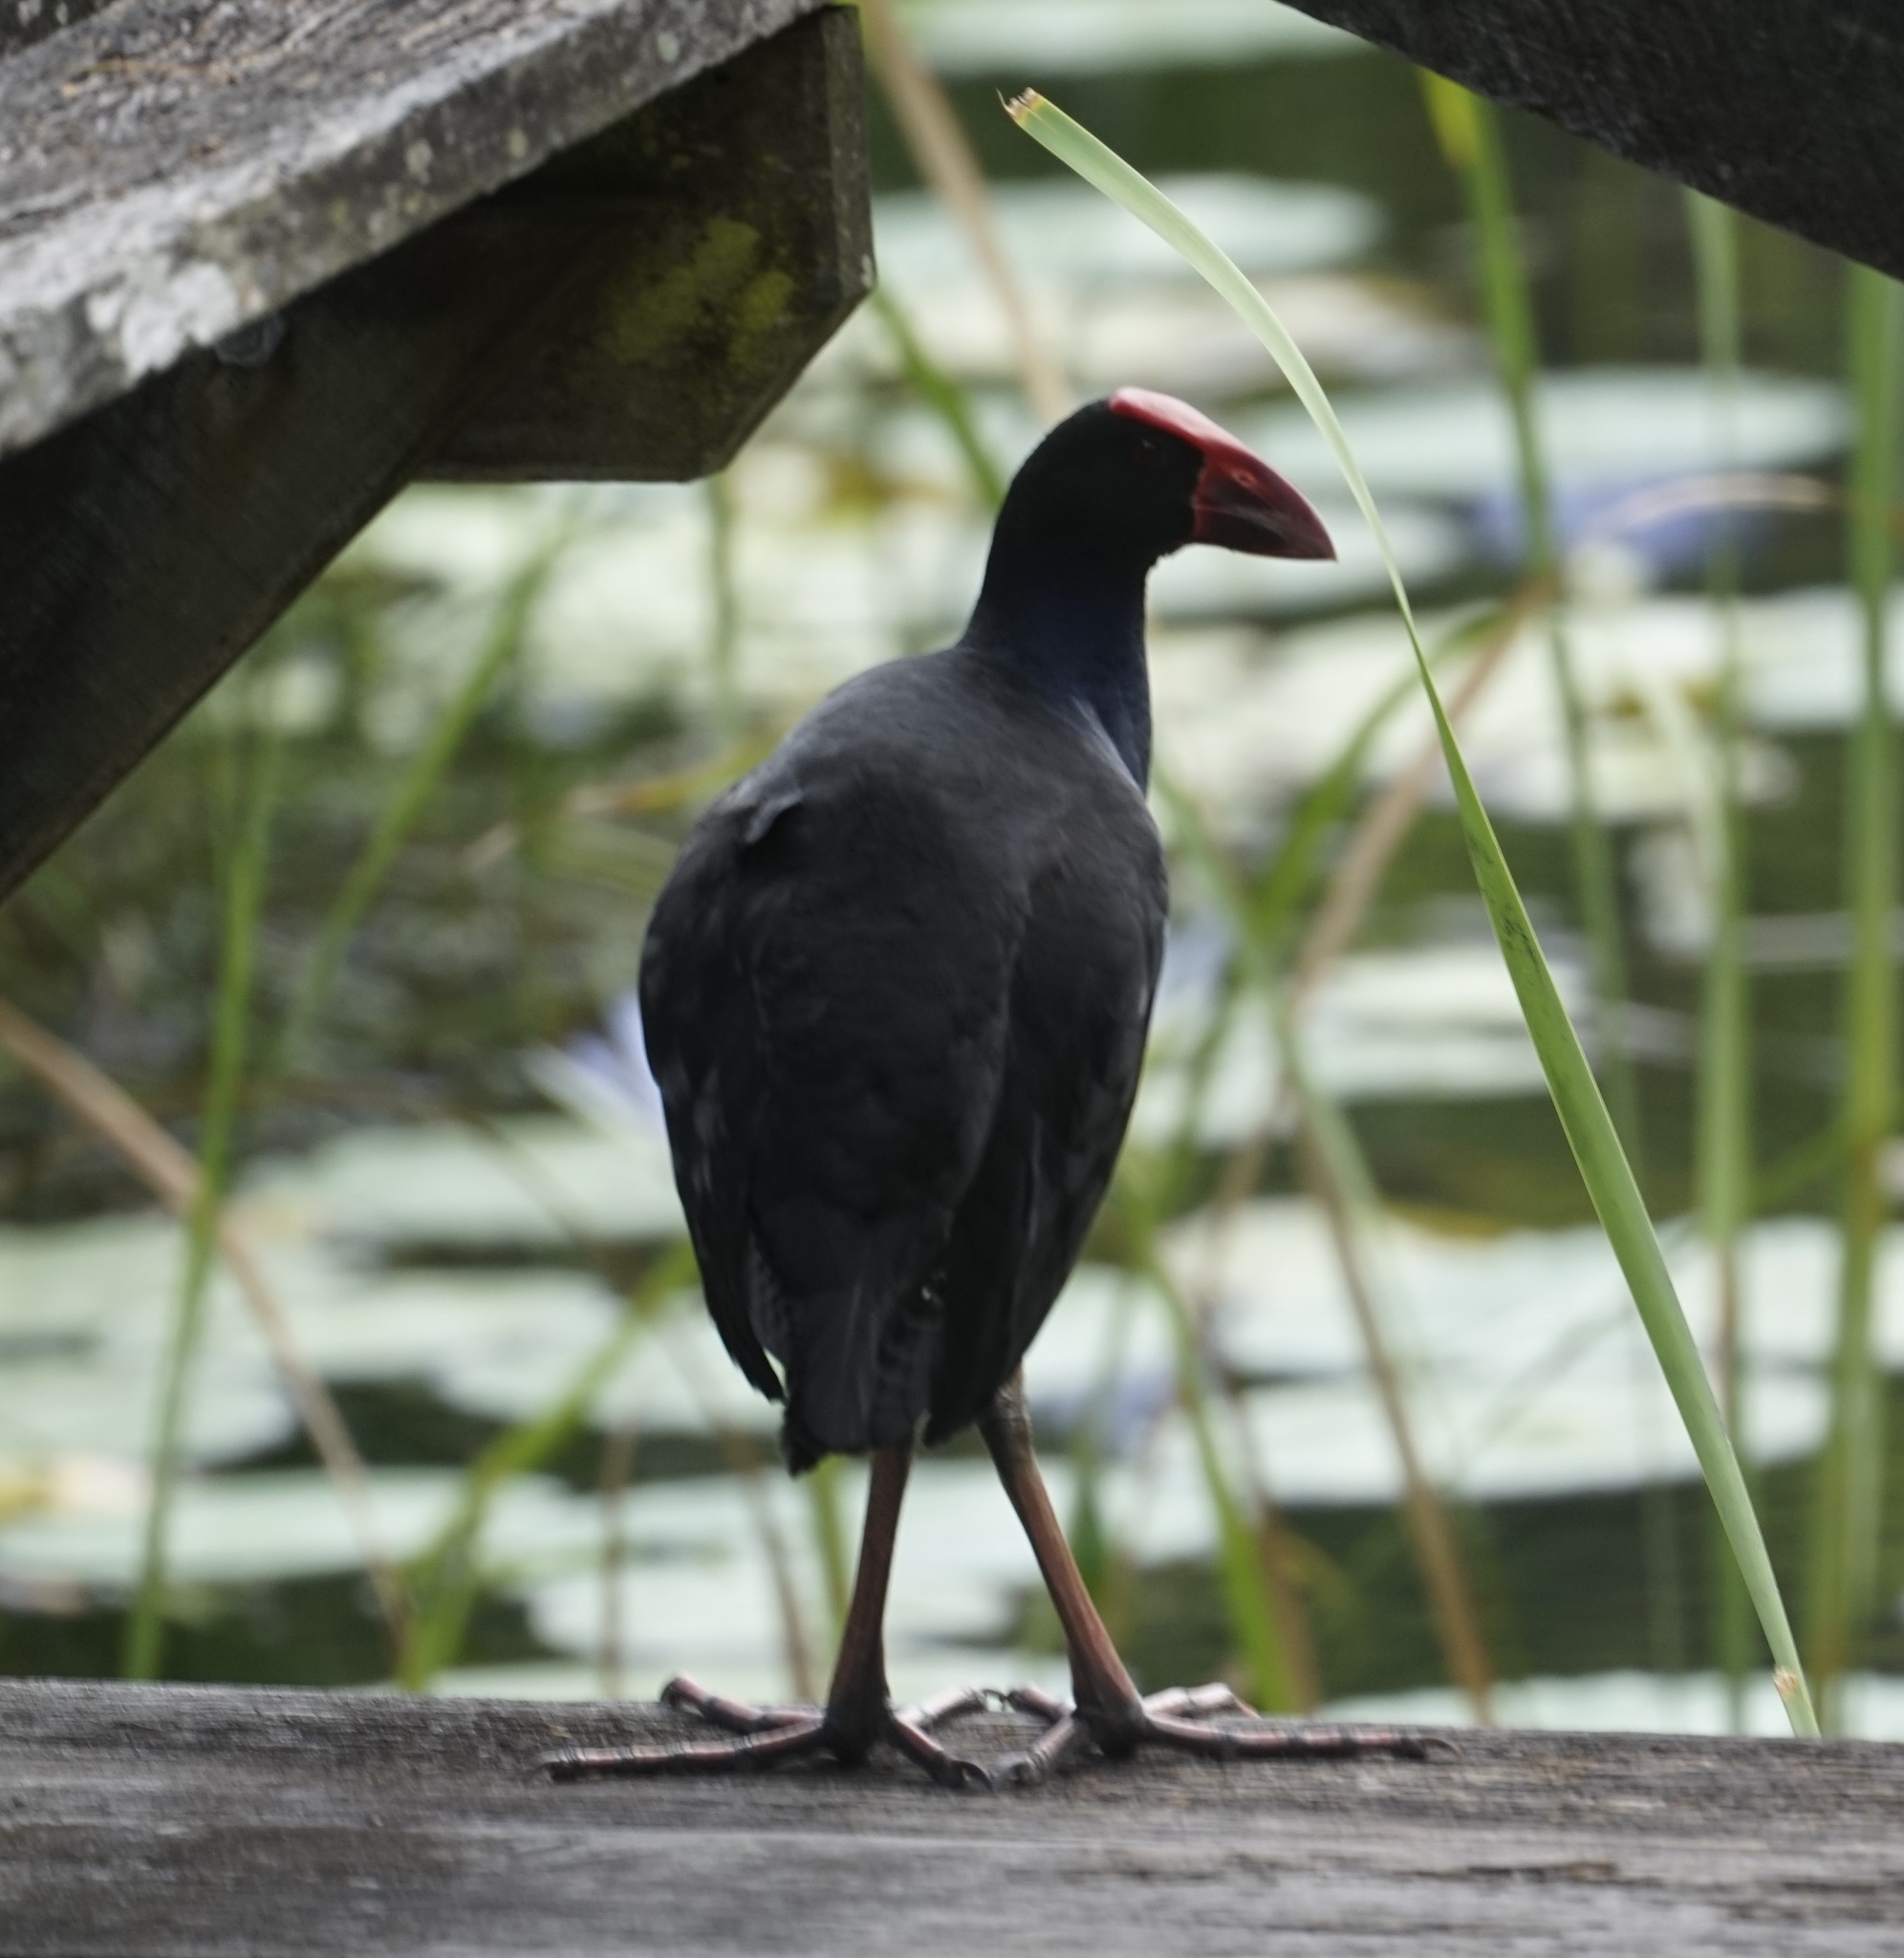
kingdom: Animalia
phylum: Chordata
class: Aves
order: Gruiformes
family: Rallidae
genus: Porphyrio
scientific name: Porphyrio melanotus
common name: Australasian swamphen
